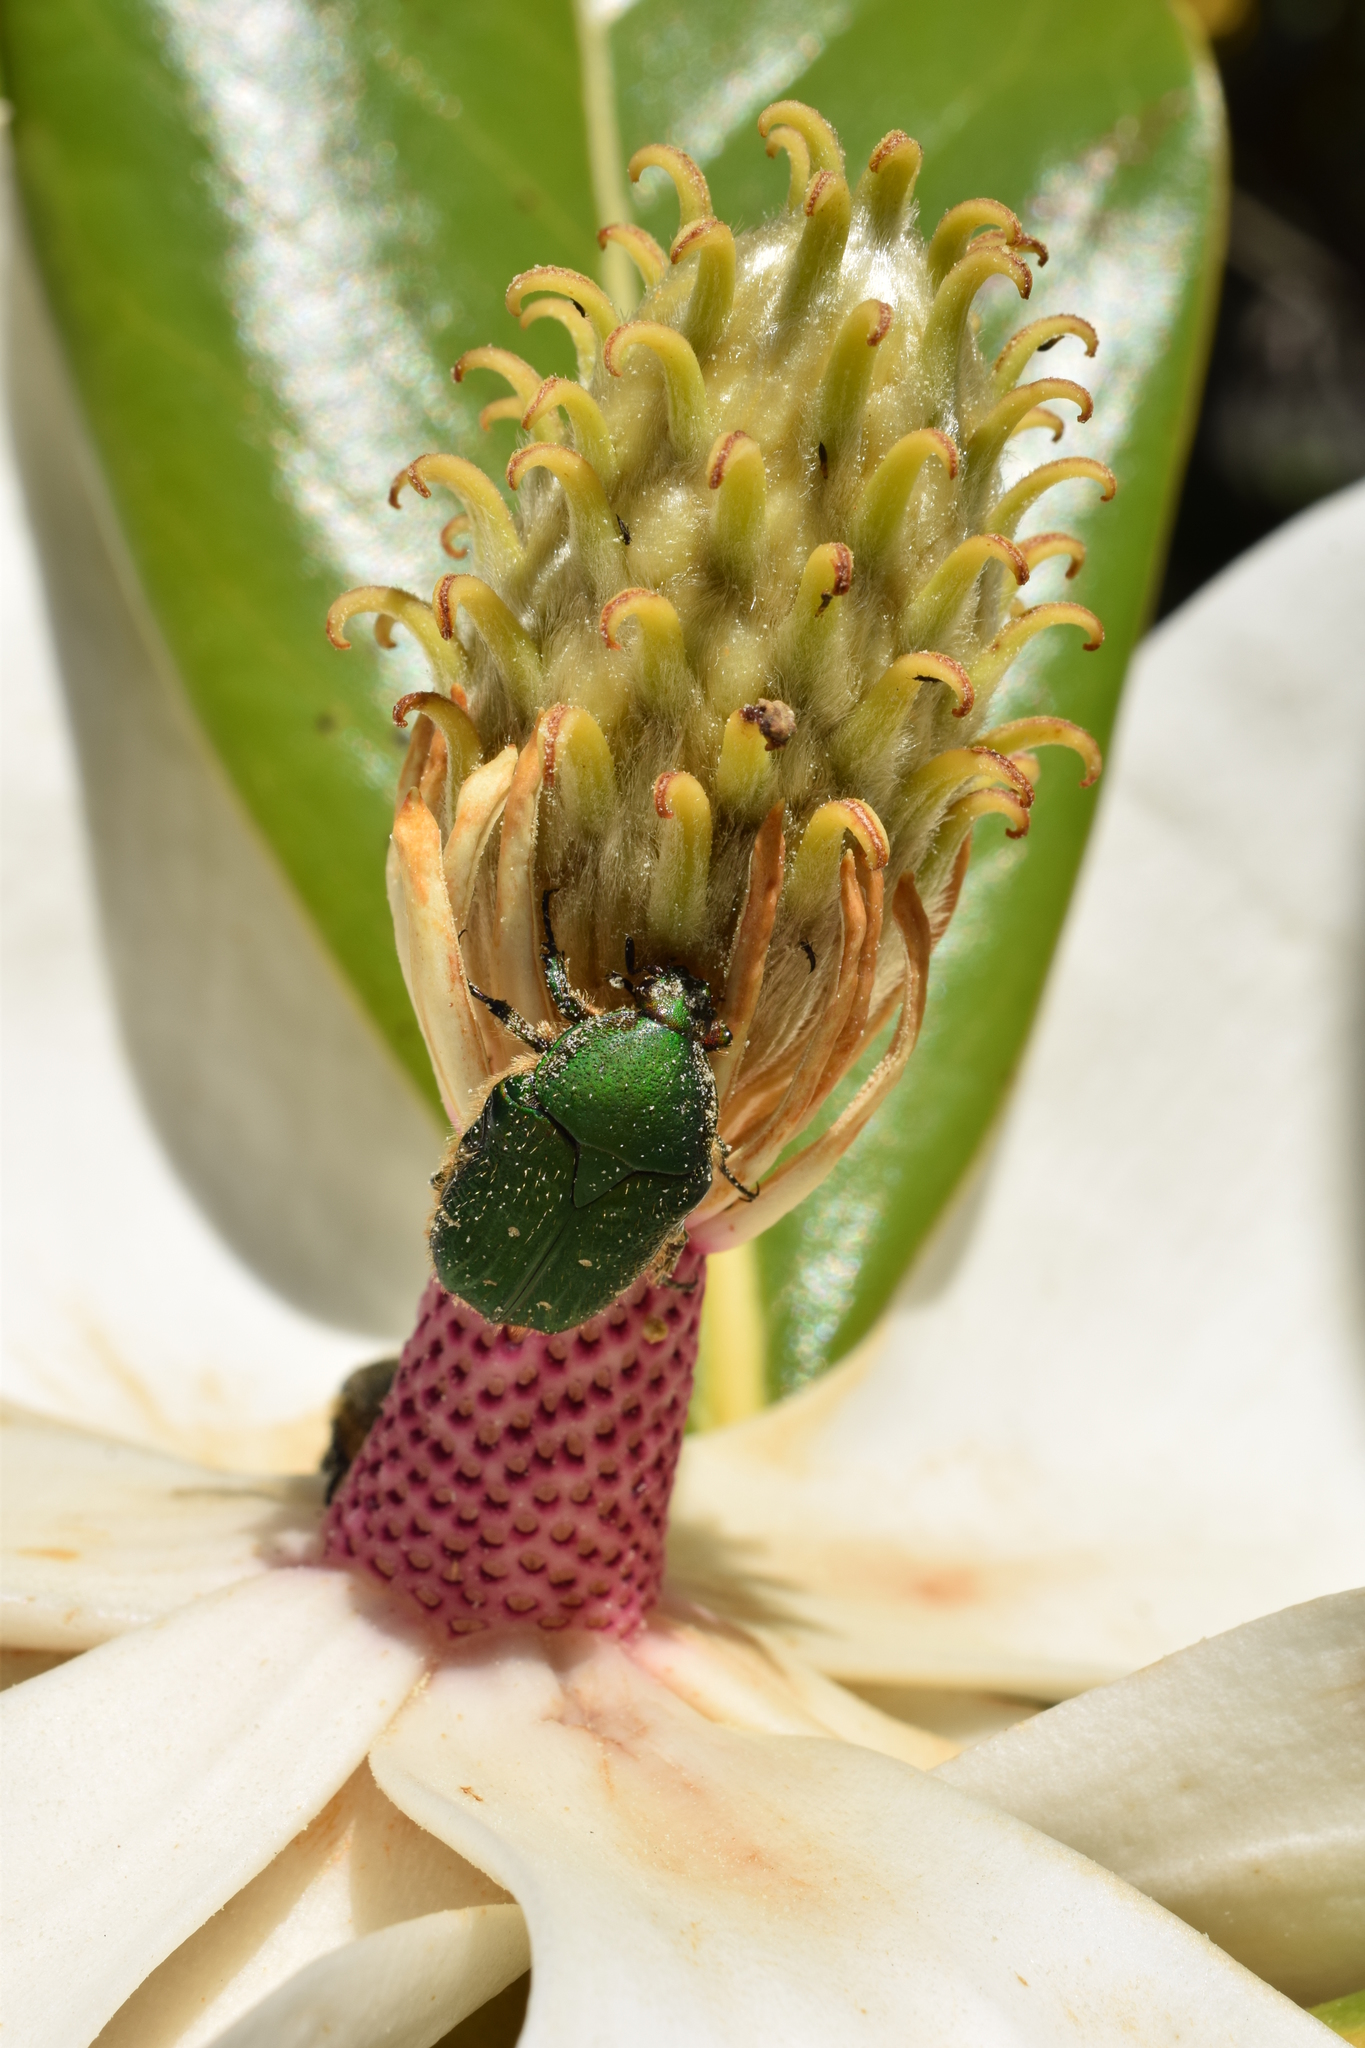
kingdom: Animalia
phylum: Arthropoda
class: Insecta
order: Coleoptera
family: Scarabaeidae
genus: Gametis
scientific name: Gametis forticula
